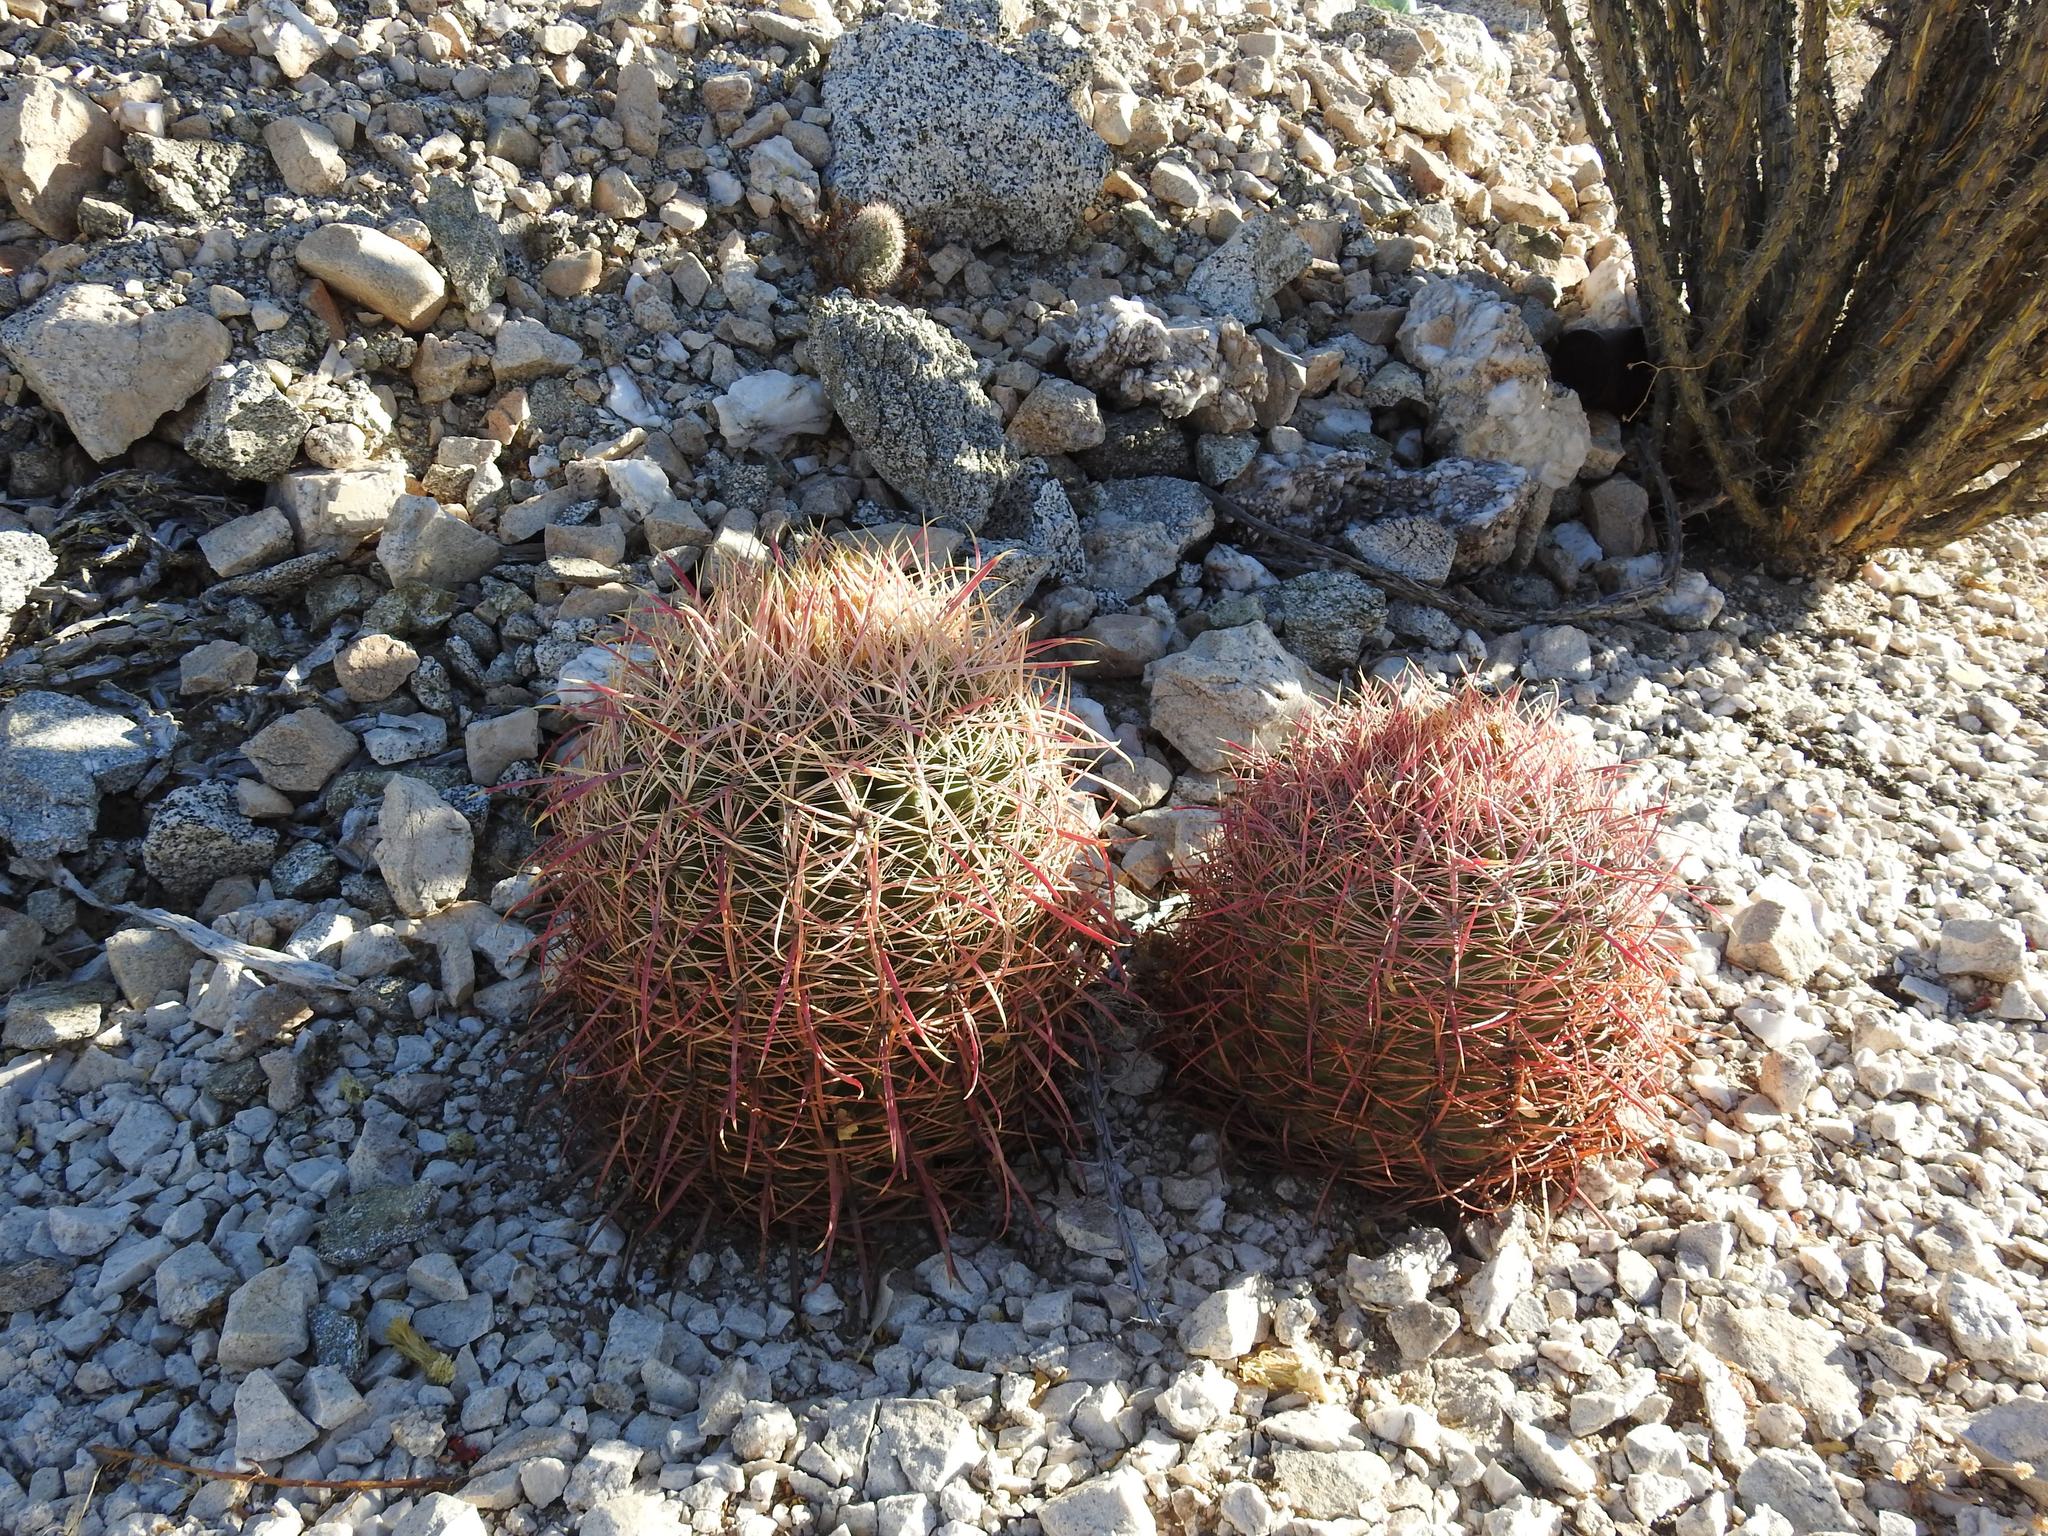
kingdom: Plantae
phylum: Tracheophyta
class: Magnoliopsida
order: Caryophyllales
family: Cactaceae
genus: Ferocactus
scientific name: Ferocactus cylindraceus
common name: California barrel cactus
